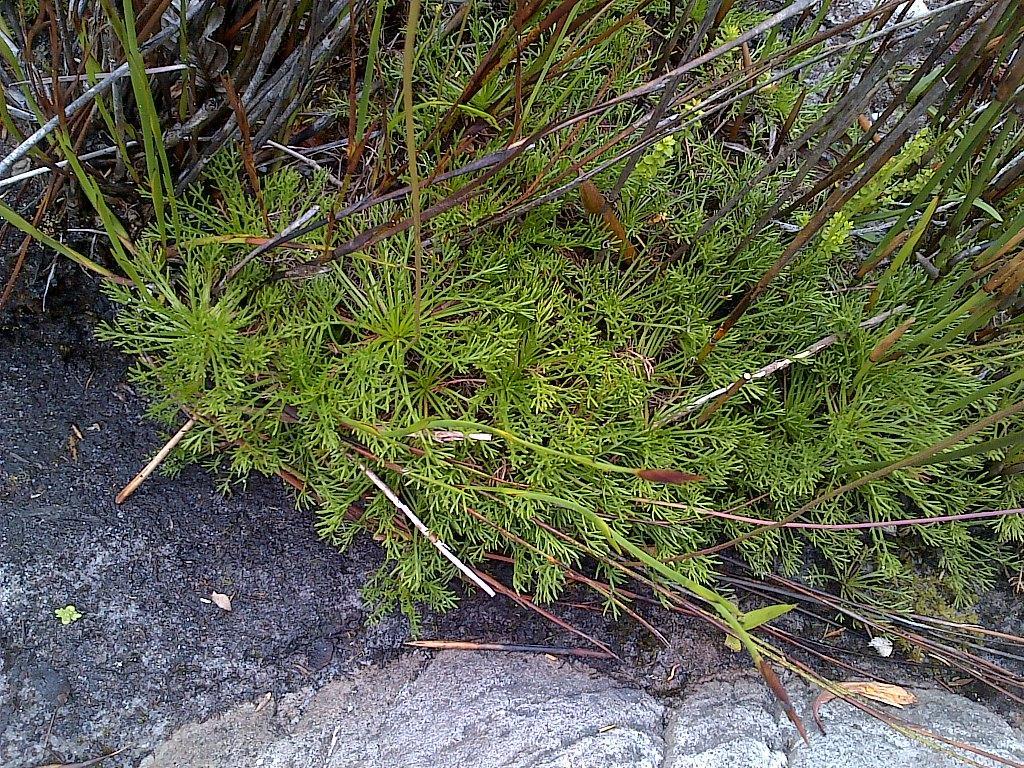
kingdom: Plantae
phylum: Tracheophyta
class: Magnoliopsida
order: Asterales
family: Asteraceae
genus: Ursinia
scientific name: Ursinia nudicaulis
